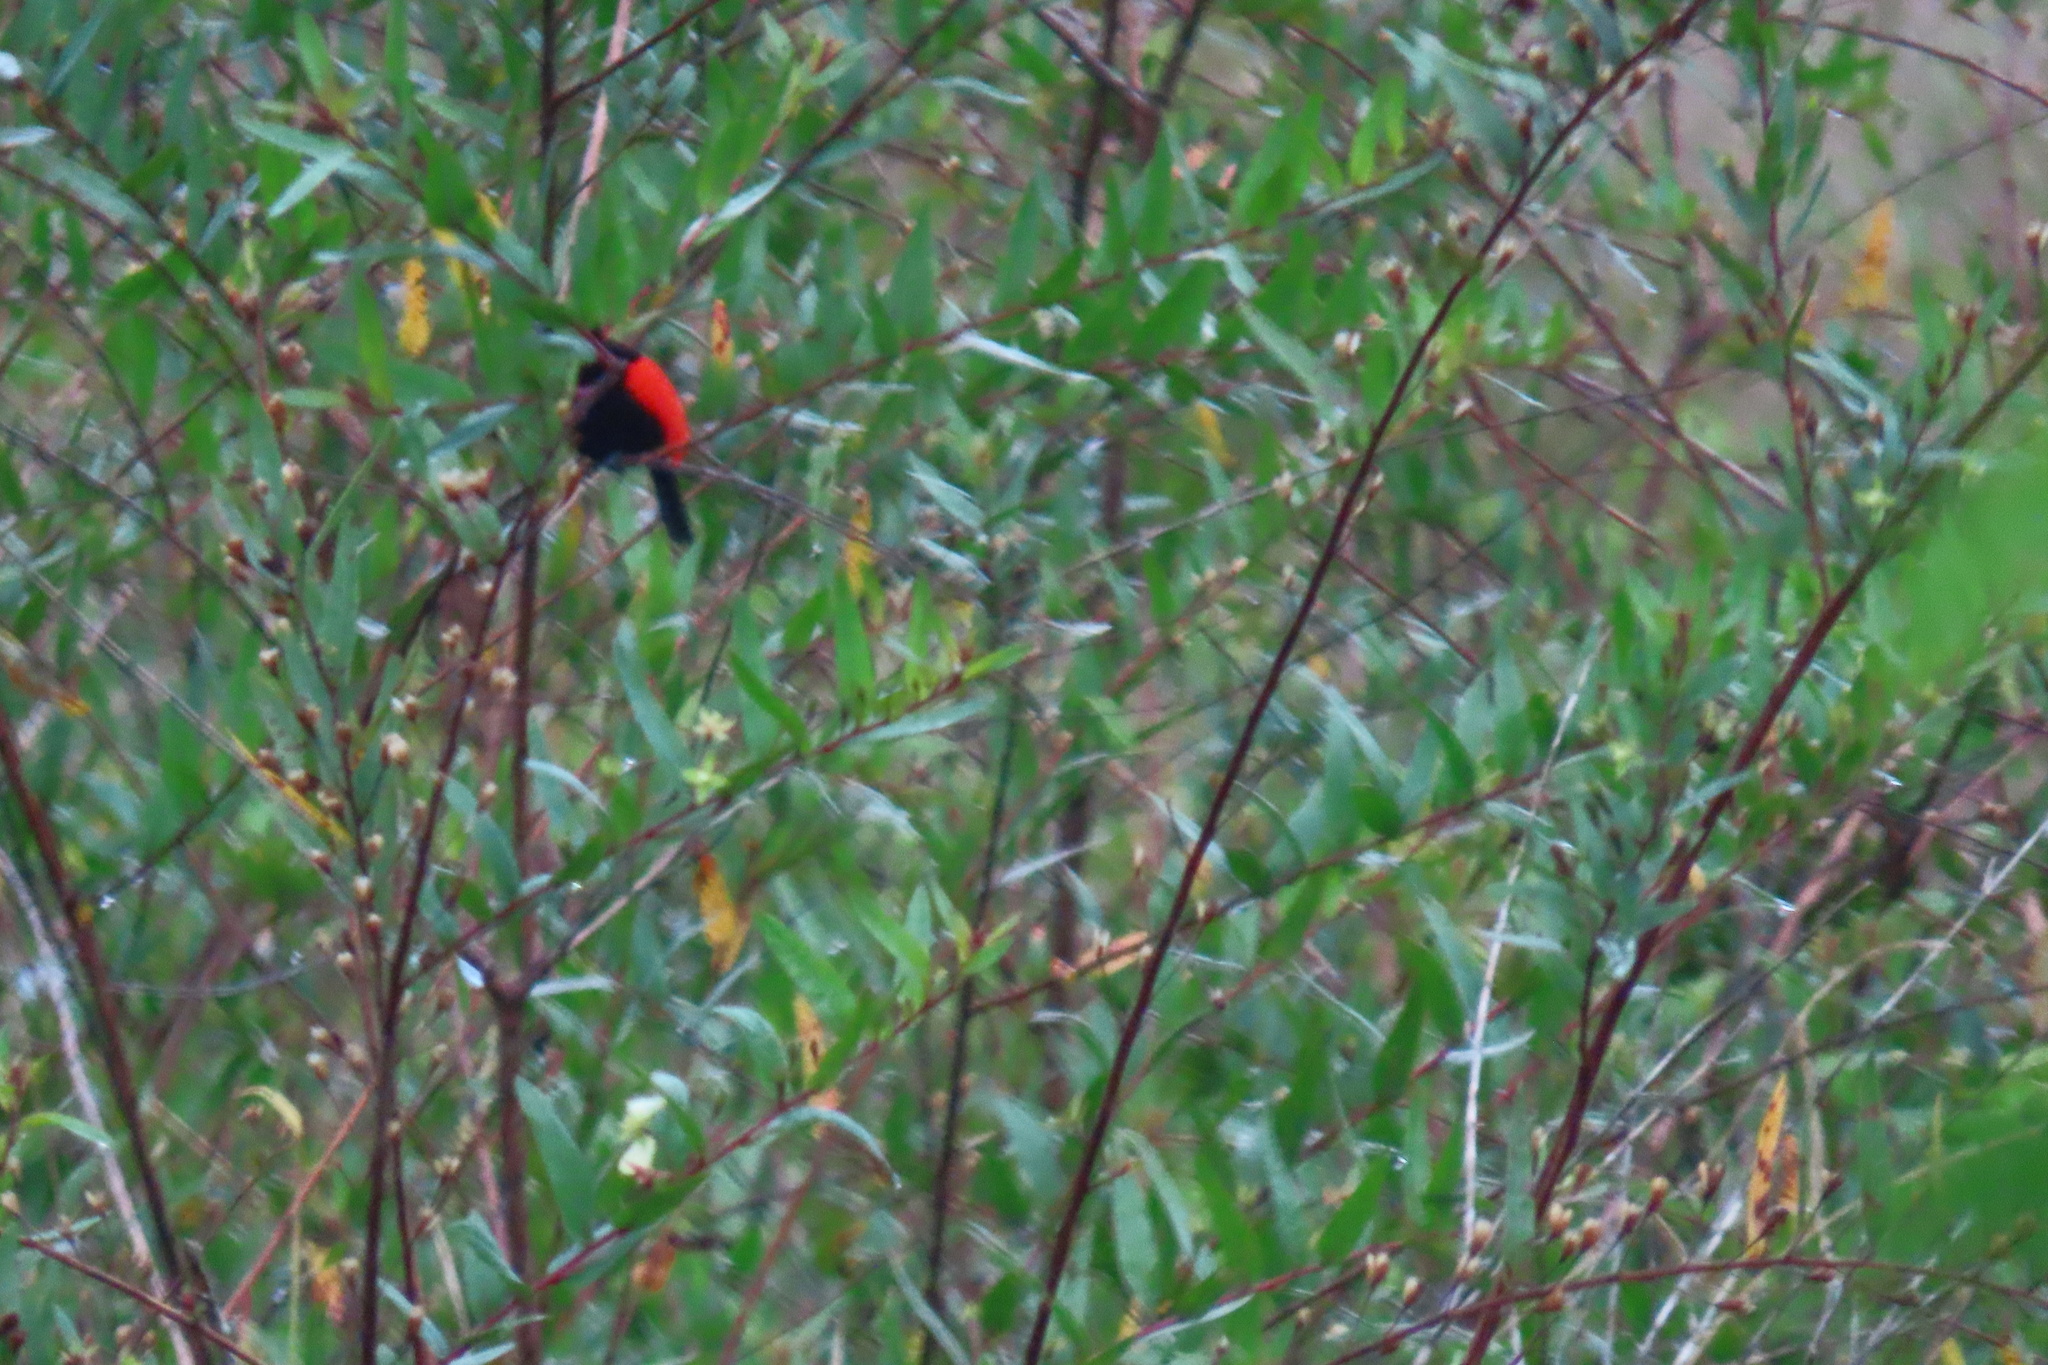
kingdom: Animalia
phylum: Chordata
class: Aves
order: Passeriformes
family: Thraupidae
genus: Ramphocelus
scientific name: Ramphocelus passerinii
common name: Passerini's tanager
